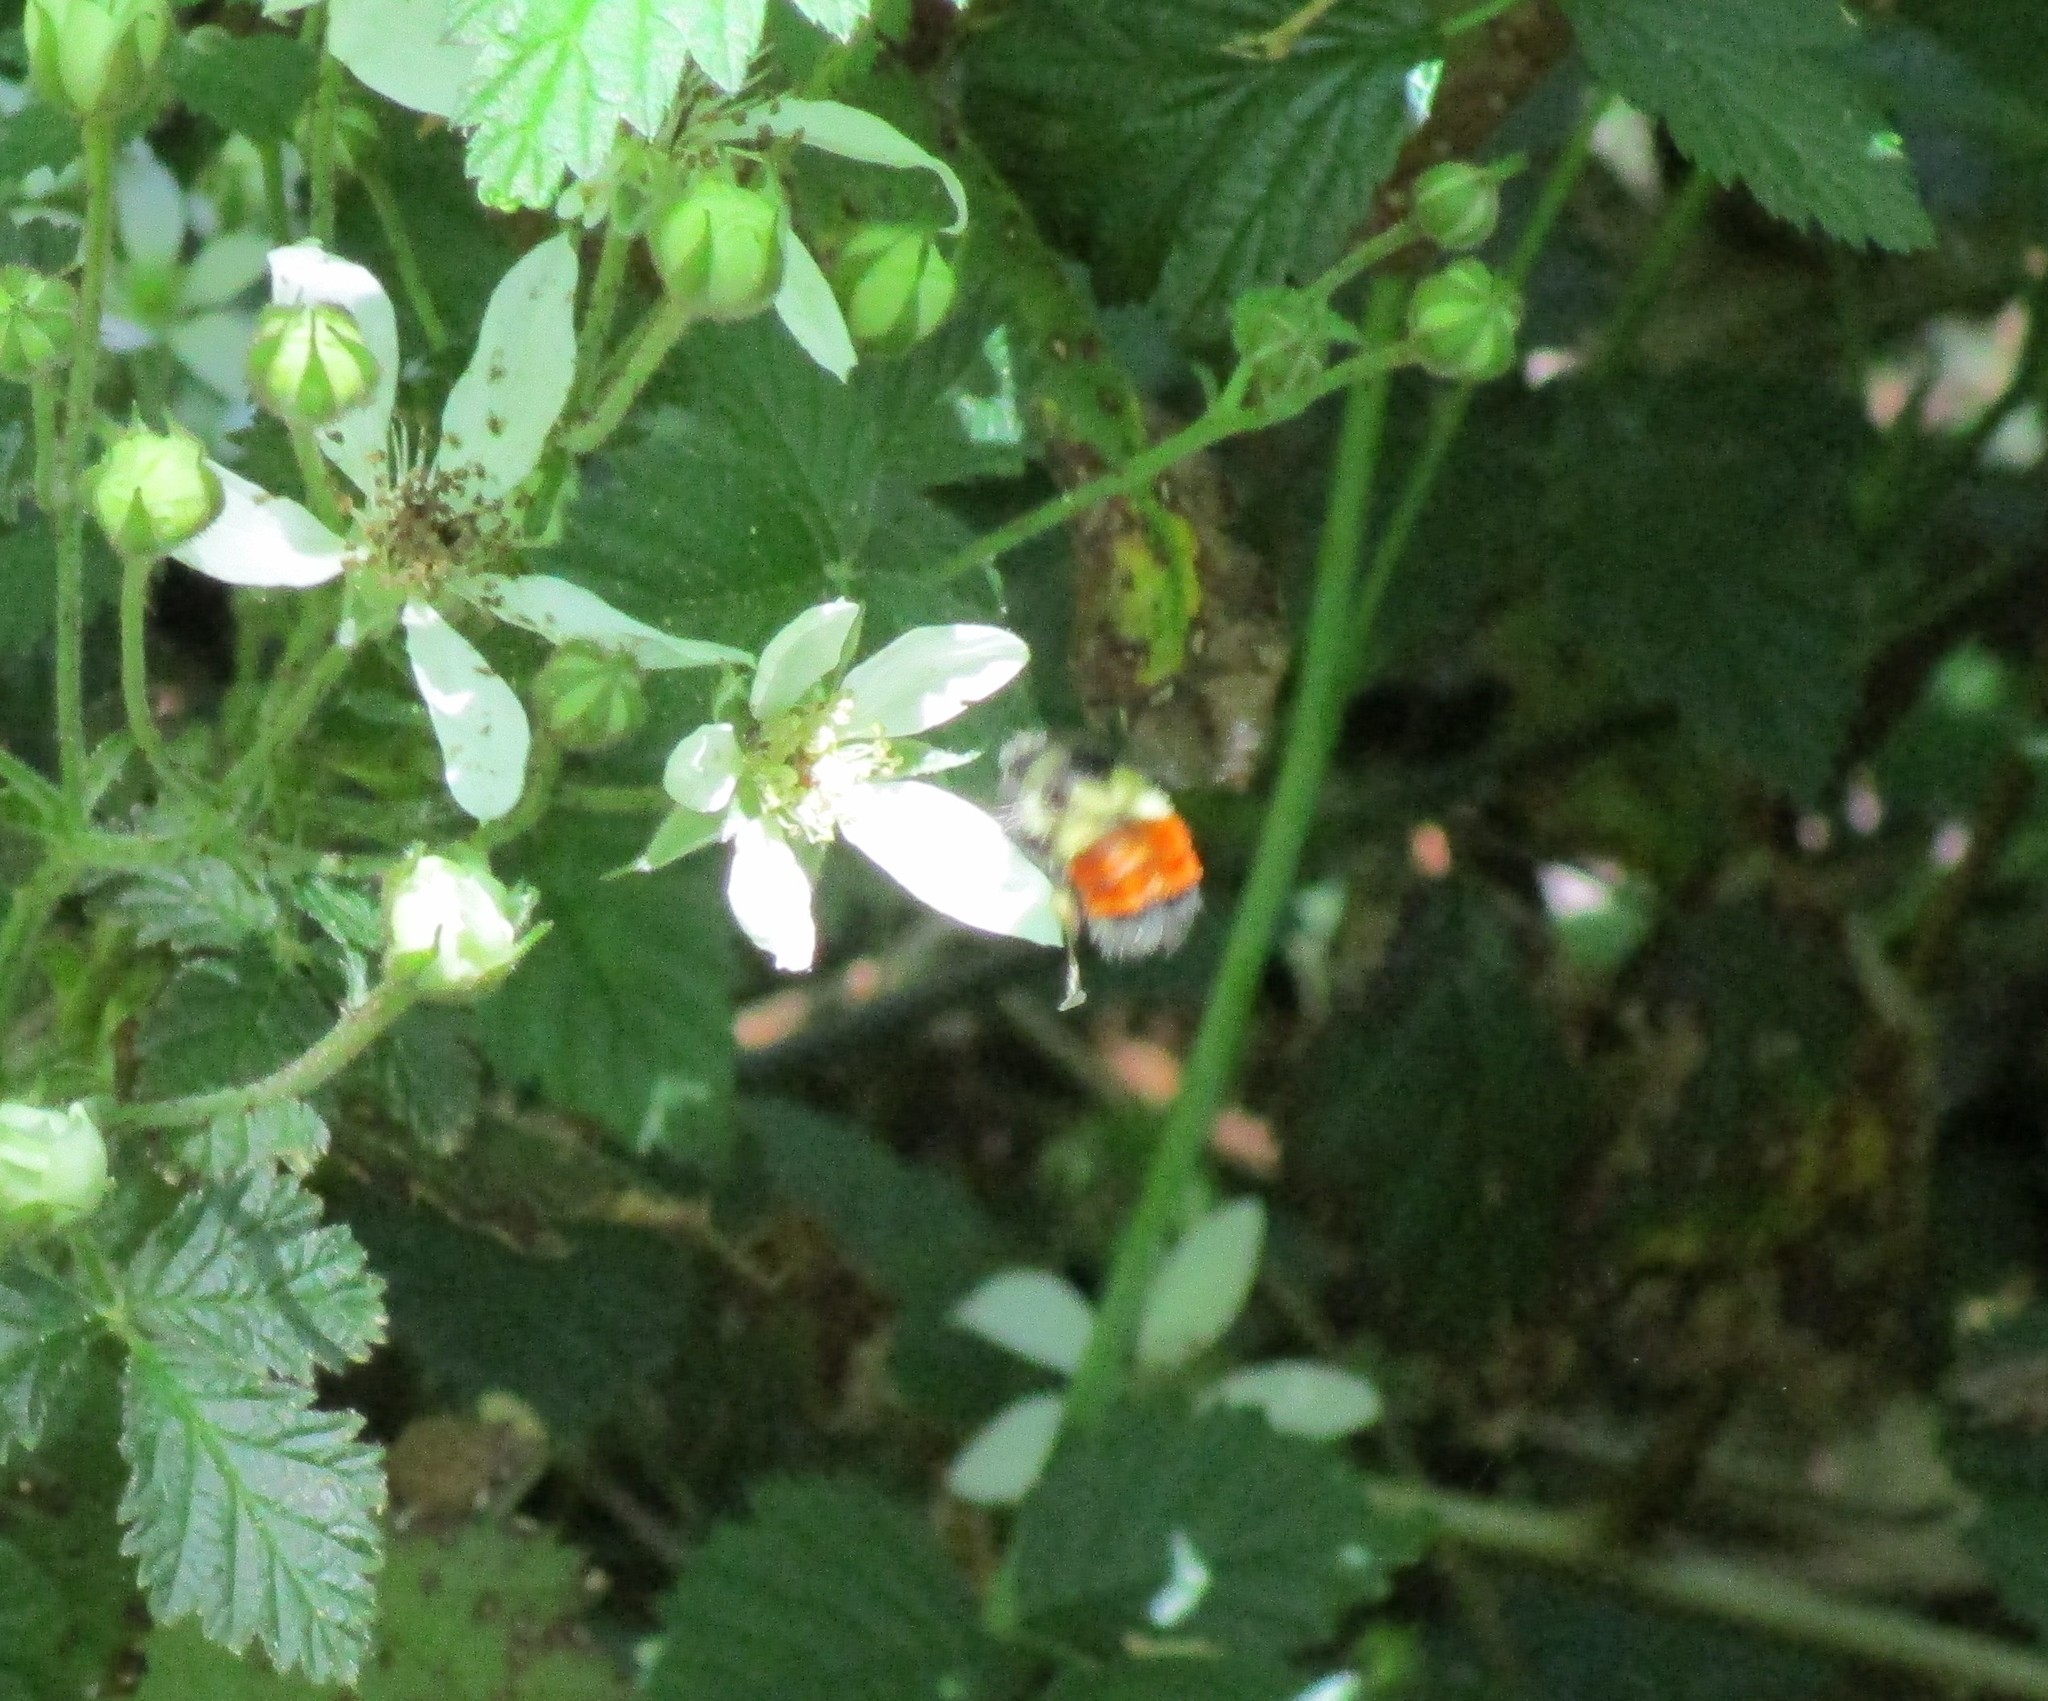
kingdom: Animalia
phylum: Arthropoda
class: Insecta
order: Hymenoptera
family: Apidae
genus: Bombus
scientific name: Bombus melanopygus
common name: Black tail bumble bee
